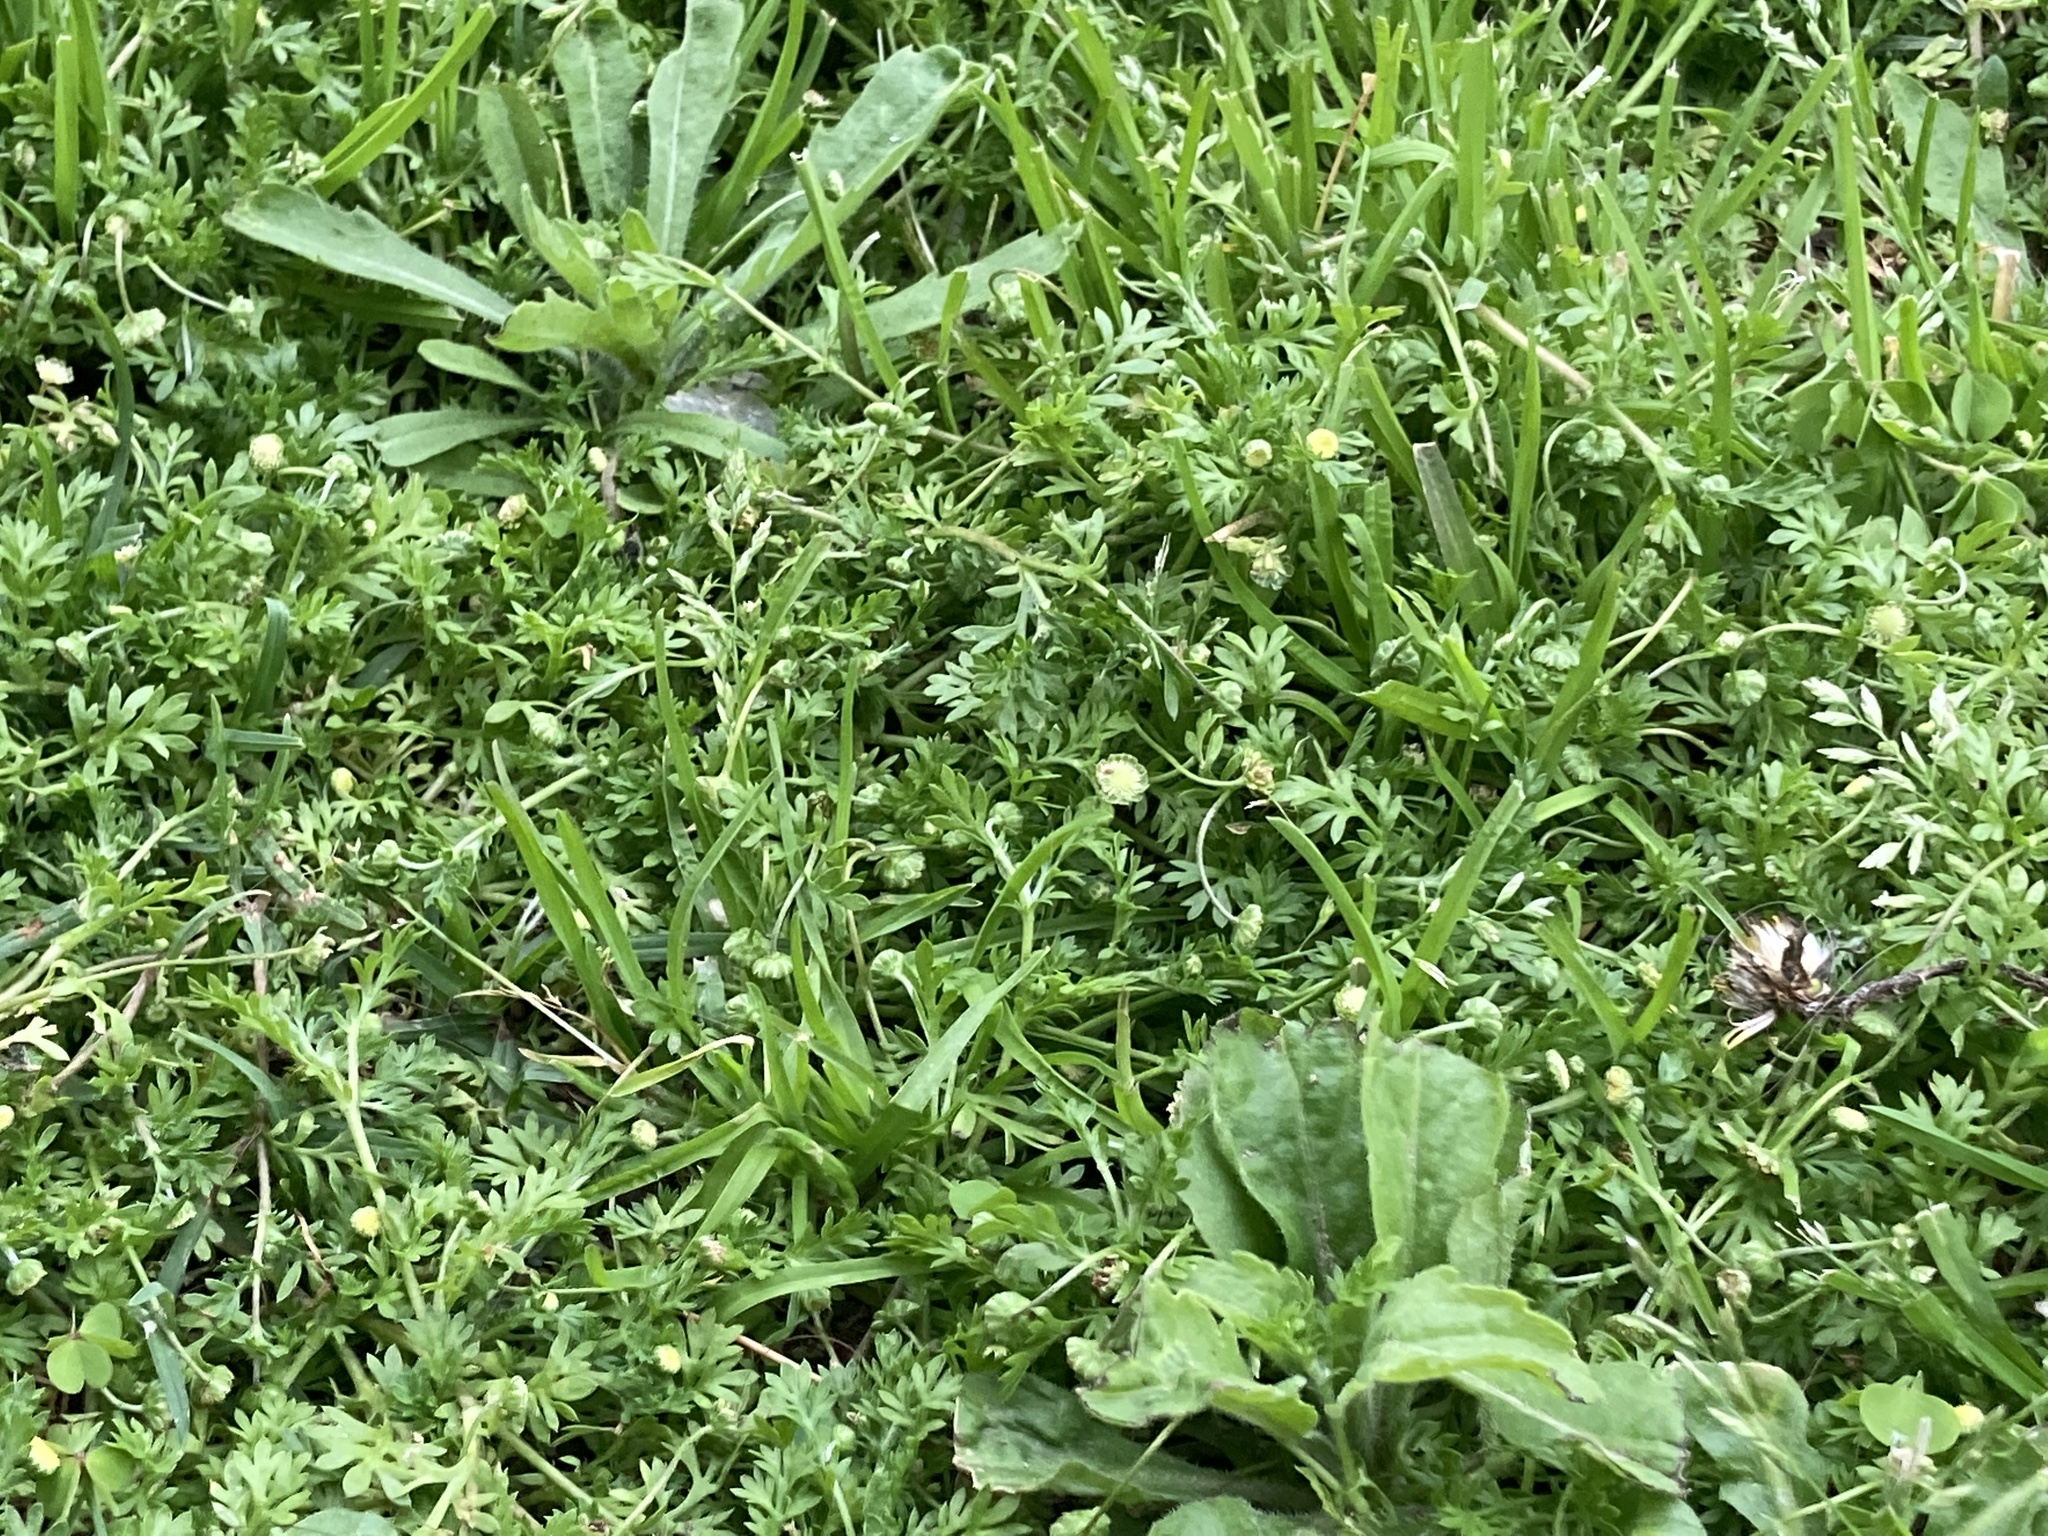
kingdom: Plantae
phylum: Tracheophyta
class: Magnoliopsida
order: Asterales
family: Asteraceae
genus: Cotula
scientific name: Cotula australis
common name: Australian waterbuttons
